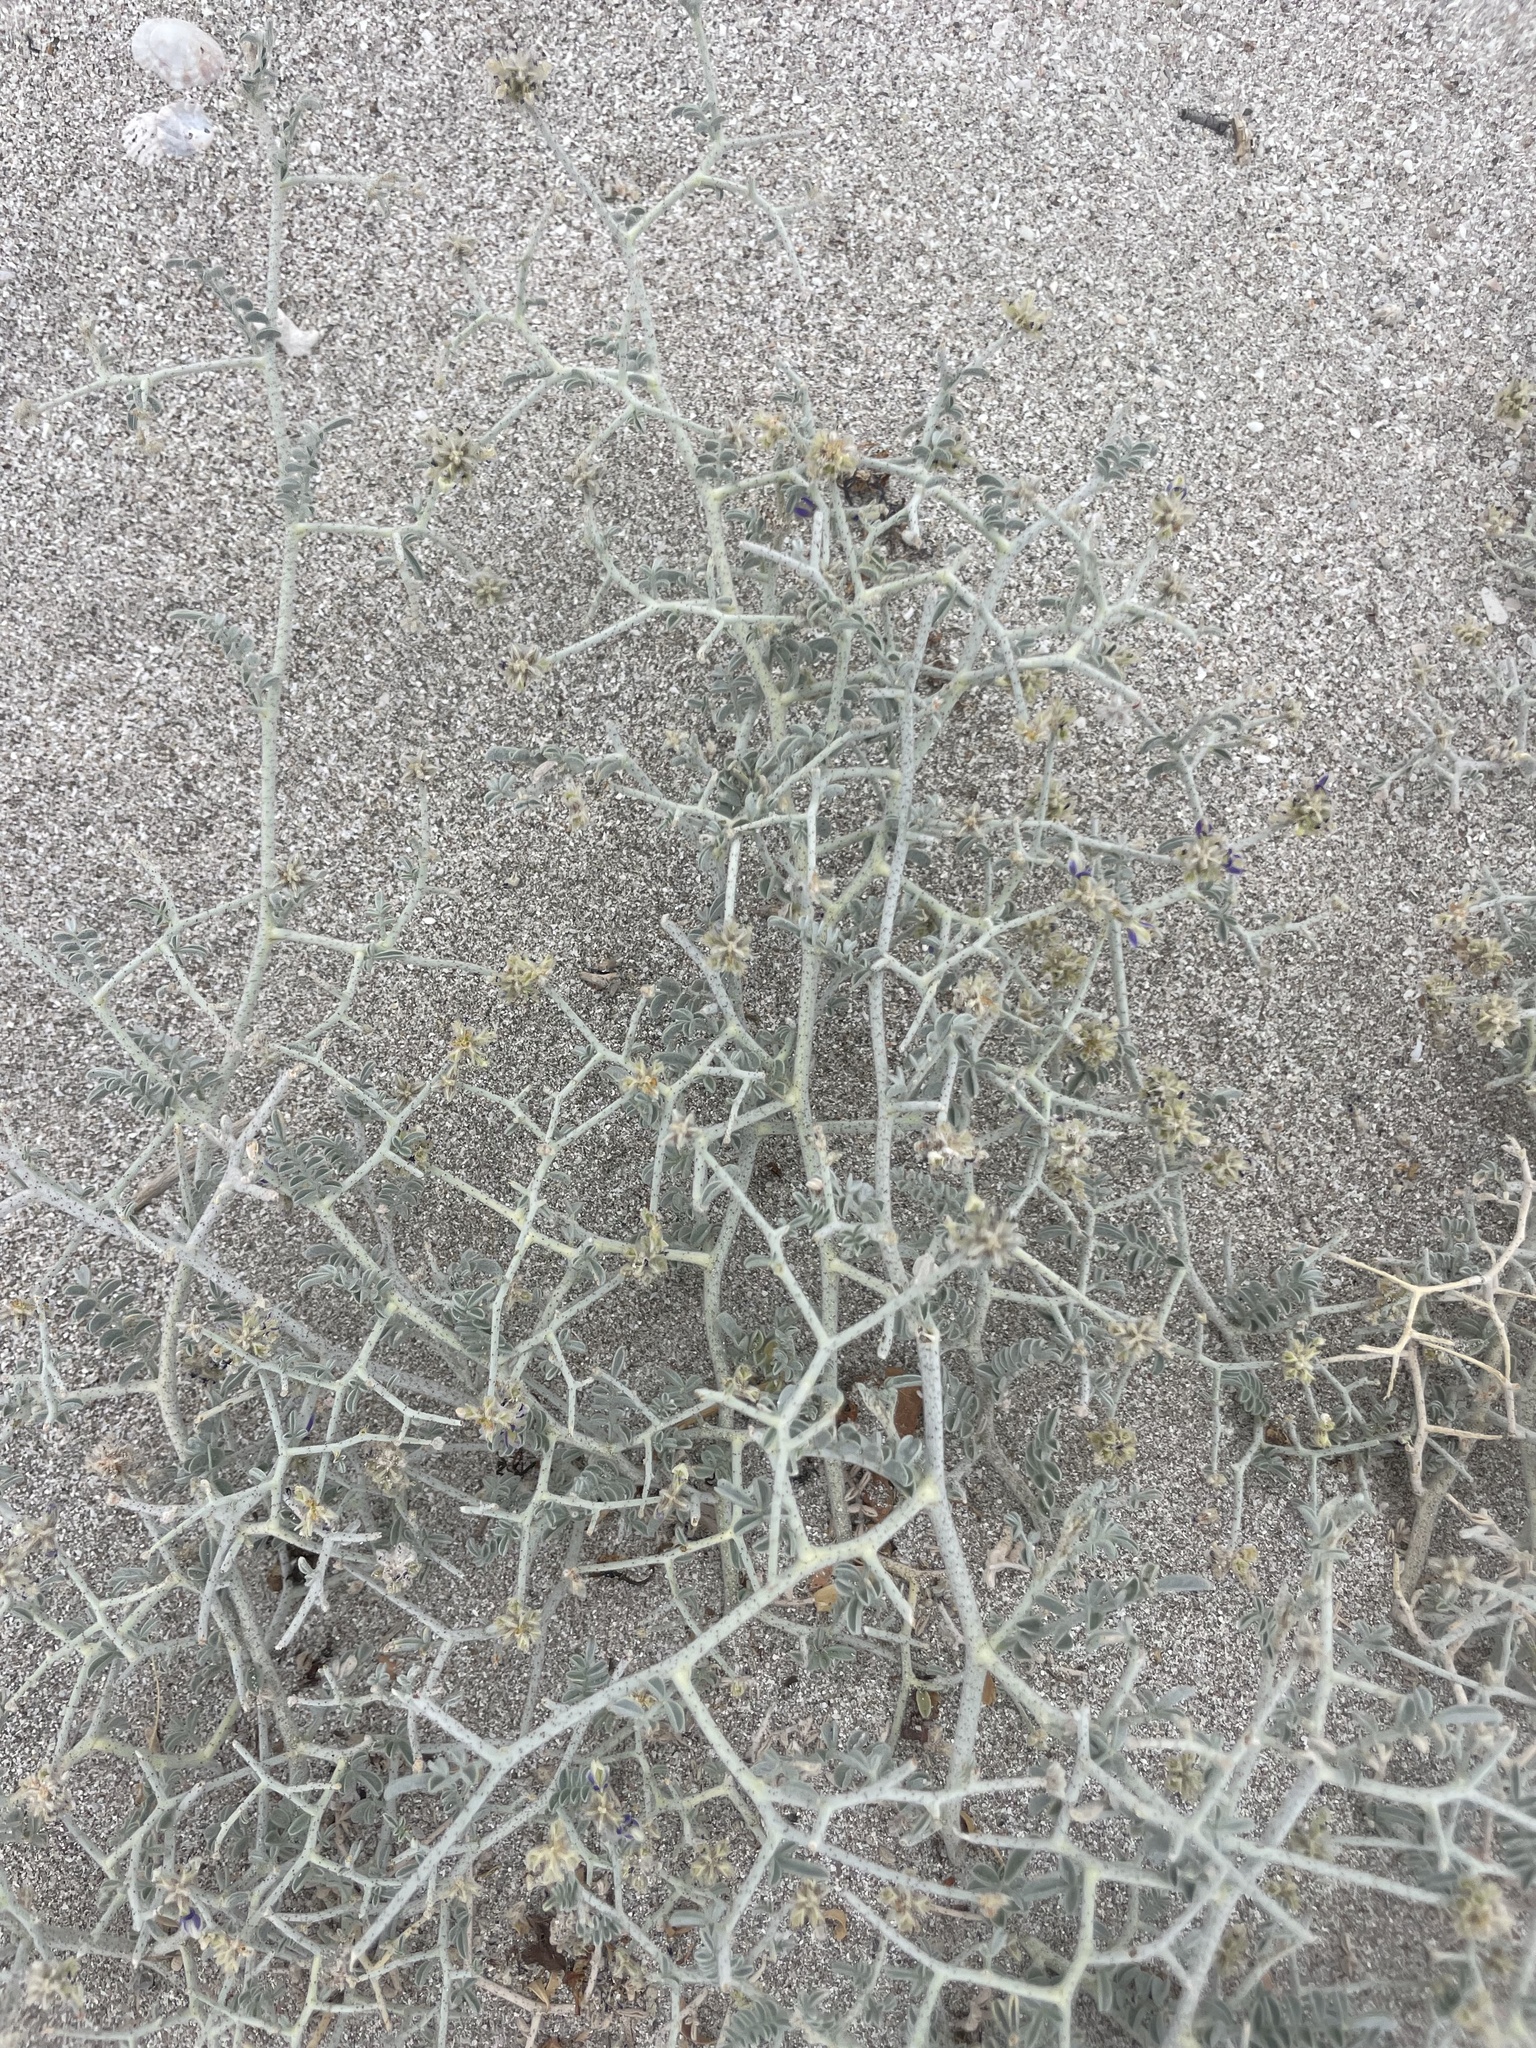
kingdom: Plantae
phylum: Tracheophyta
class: Magnoliopsida
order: Fabales
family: Fabaceae
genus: Psorothamnus
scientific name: Psorothamnus emoryi
